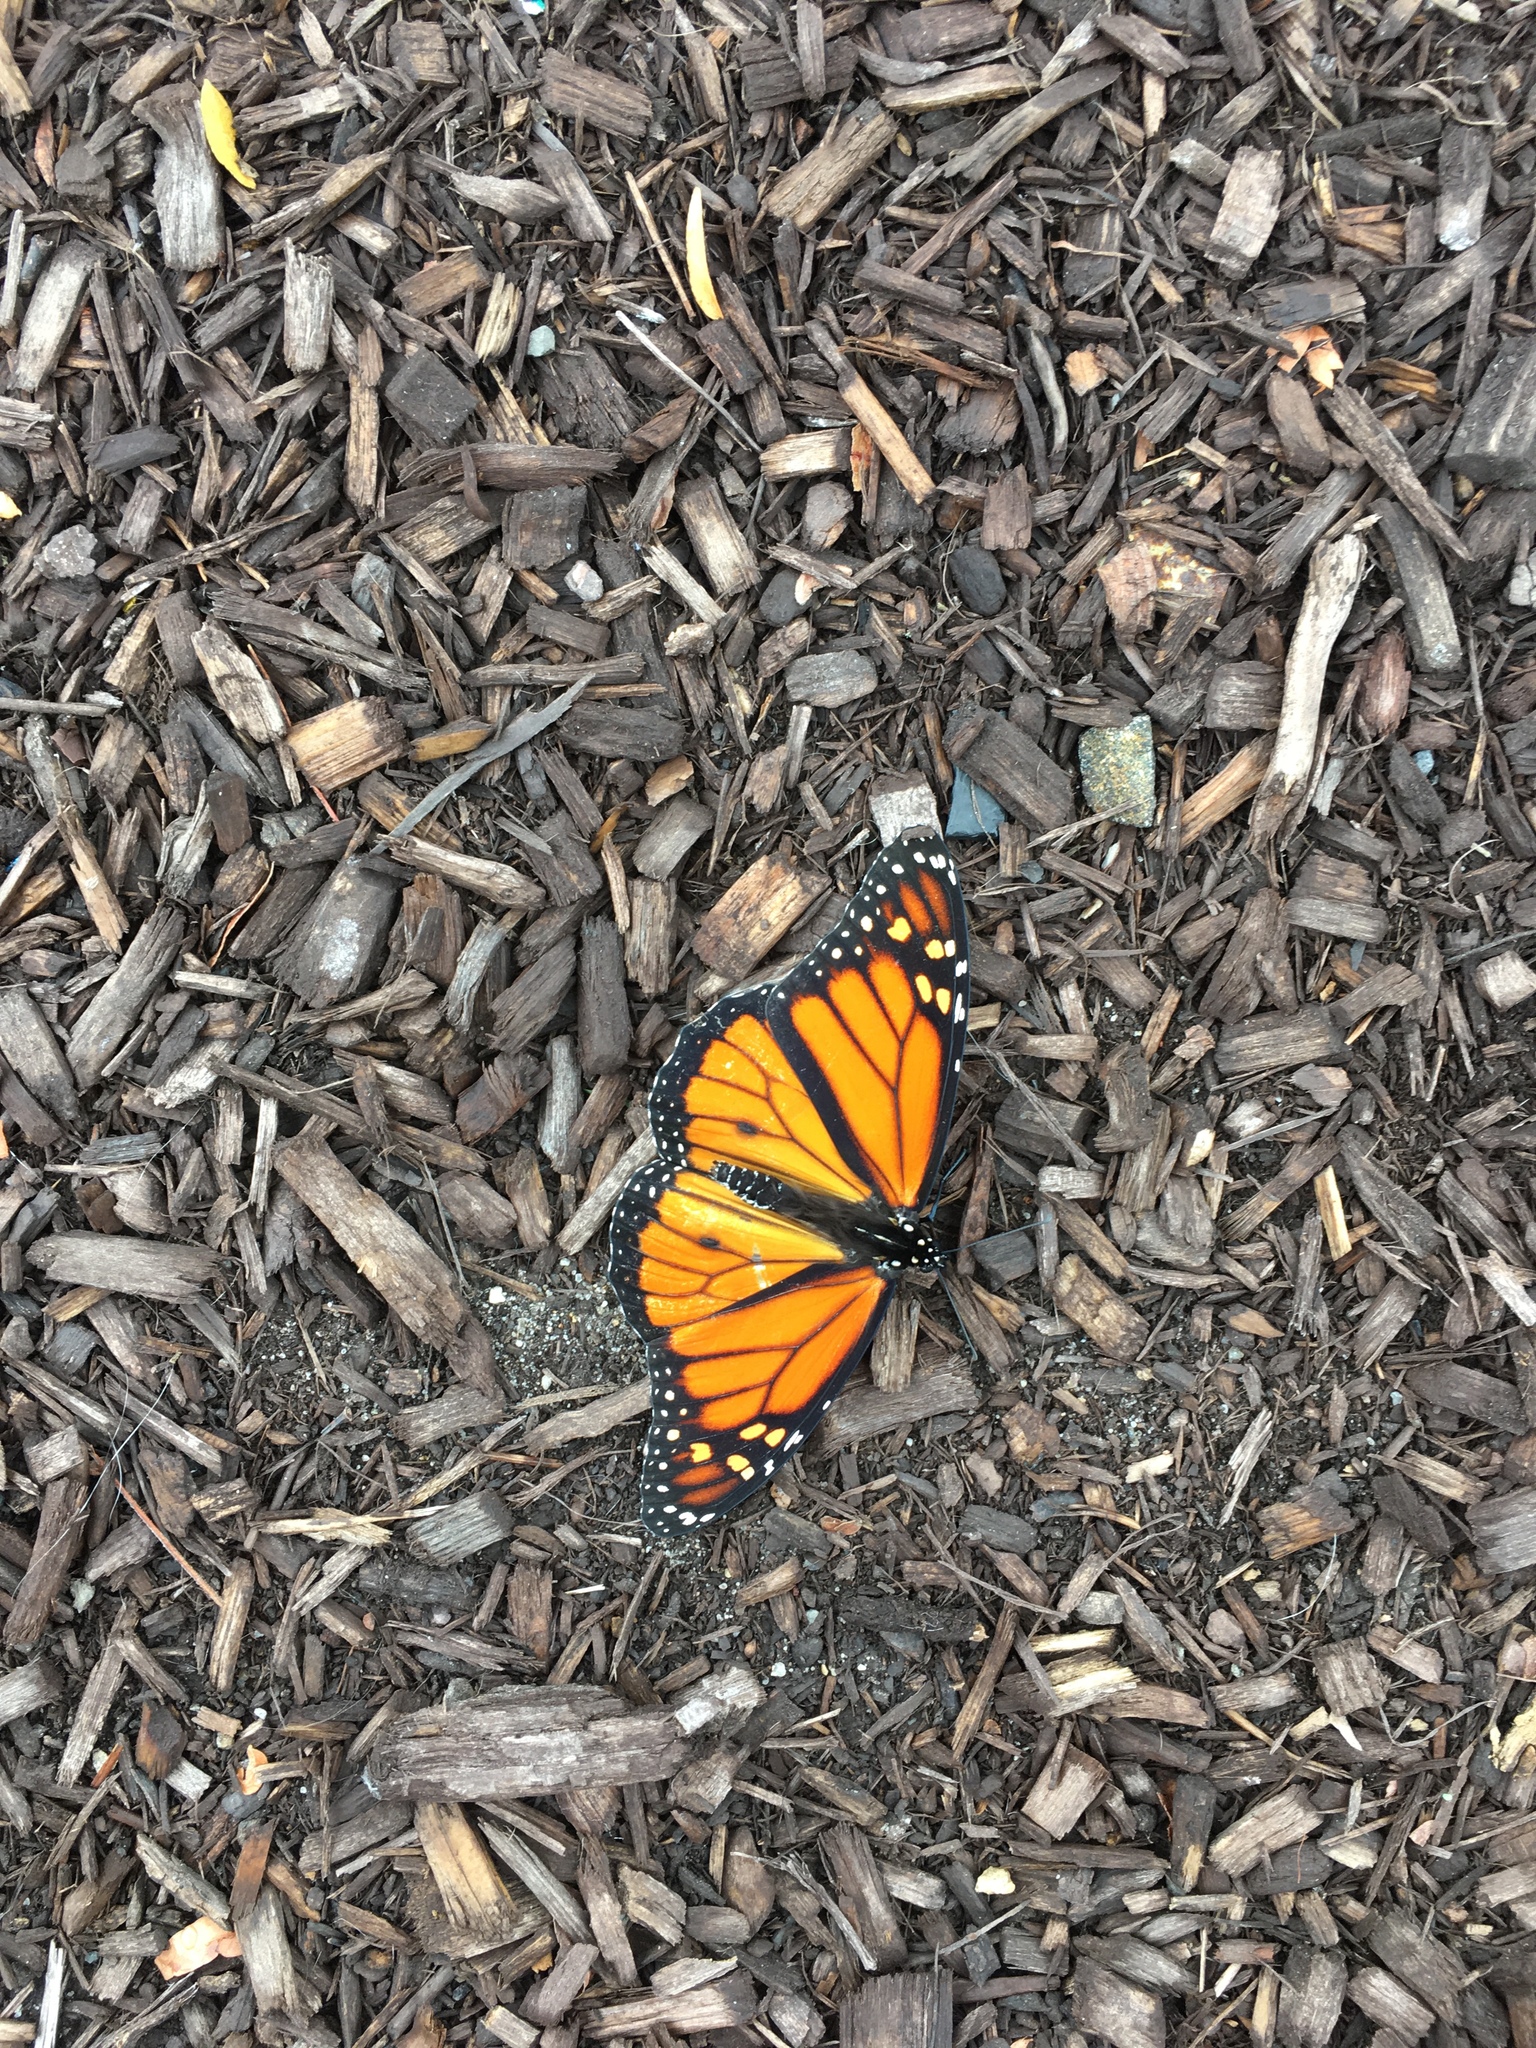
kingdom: Animalia
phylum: Arthropoda
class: Insecta
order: Lepidoptera
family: Nymphalidae
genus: Danaus
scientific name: Danaus plexippus
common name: Monarch
